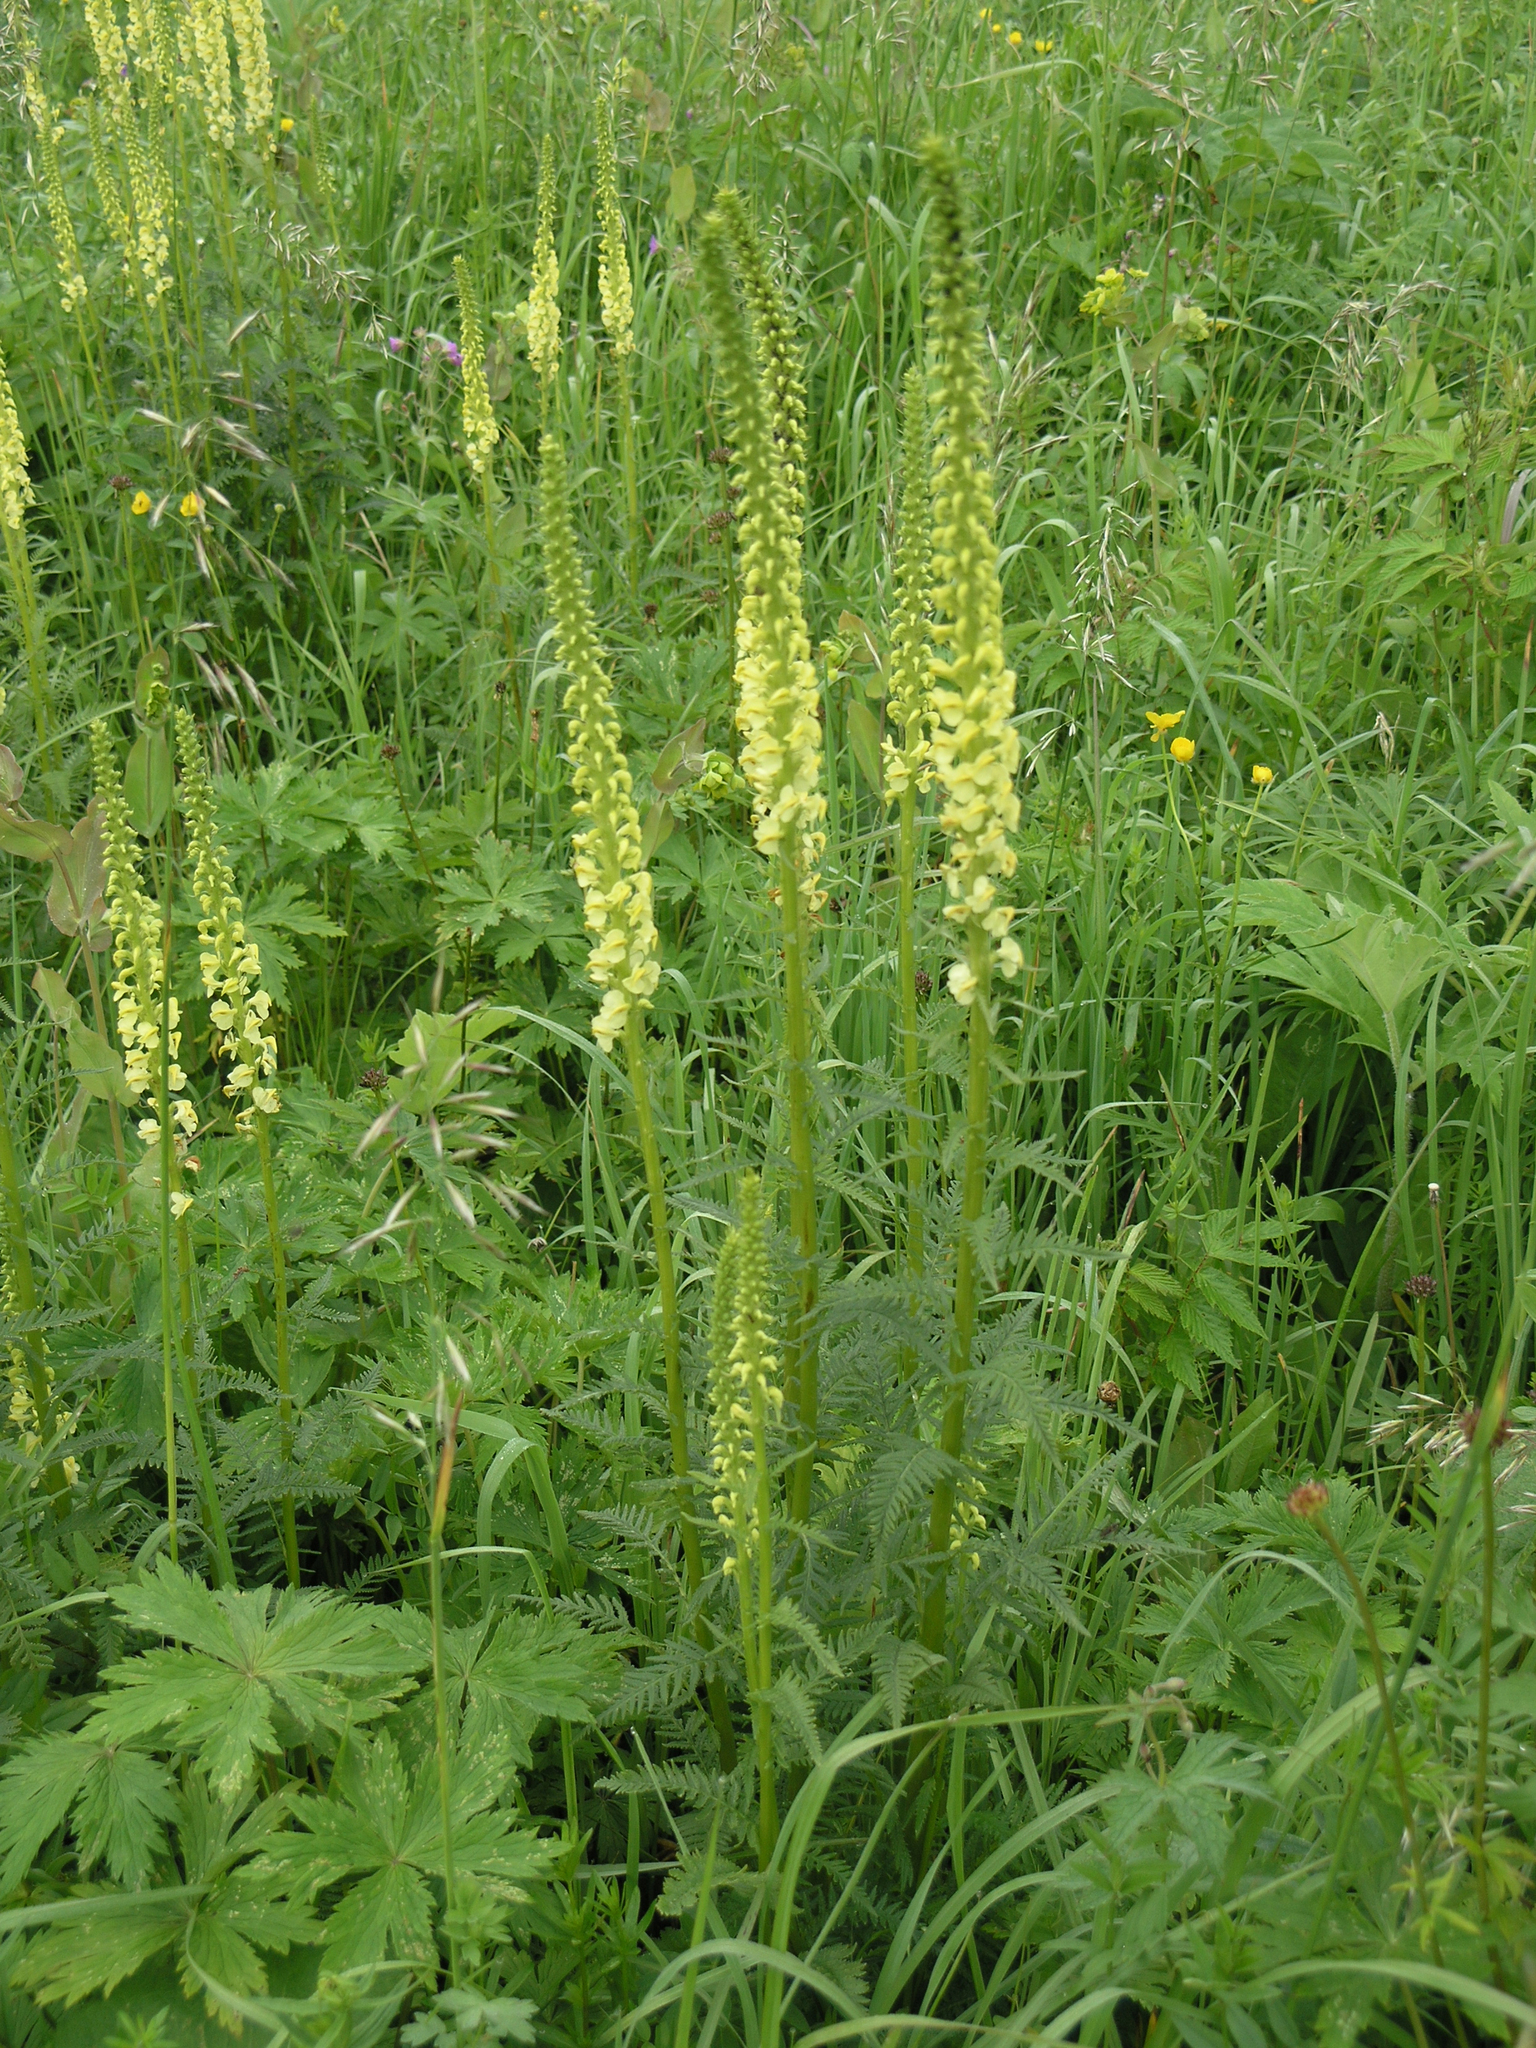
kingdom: Plantae
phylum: Tracheophyta
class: Magnoliopsida
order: Lamiales
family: Orobanchaceae
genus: Pedicularis
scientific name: Pedicularis incarnata
